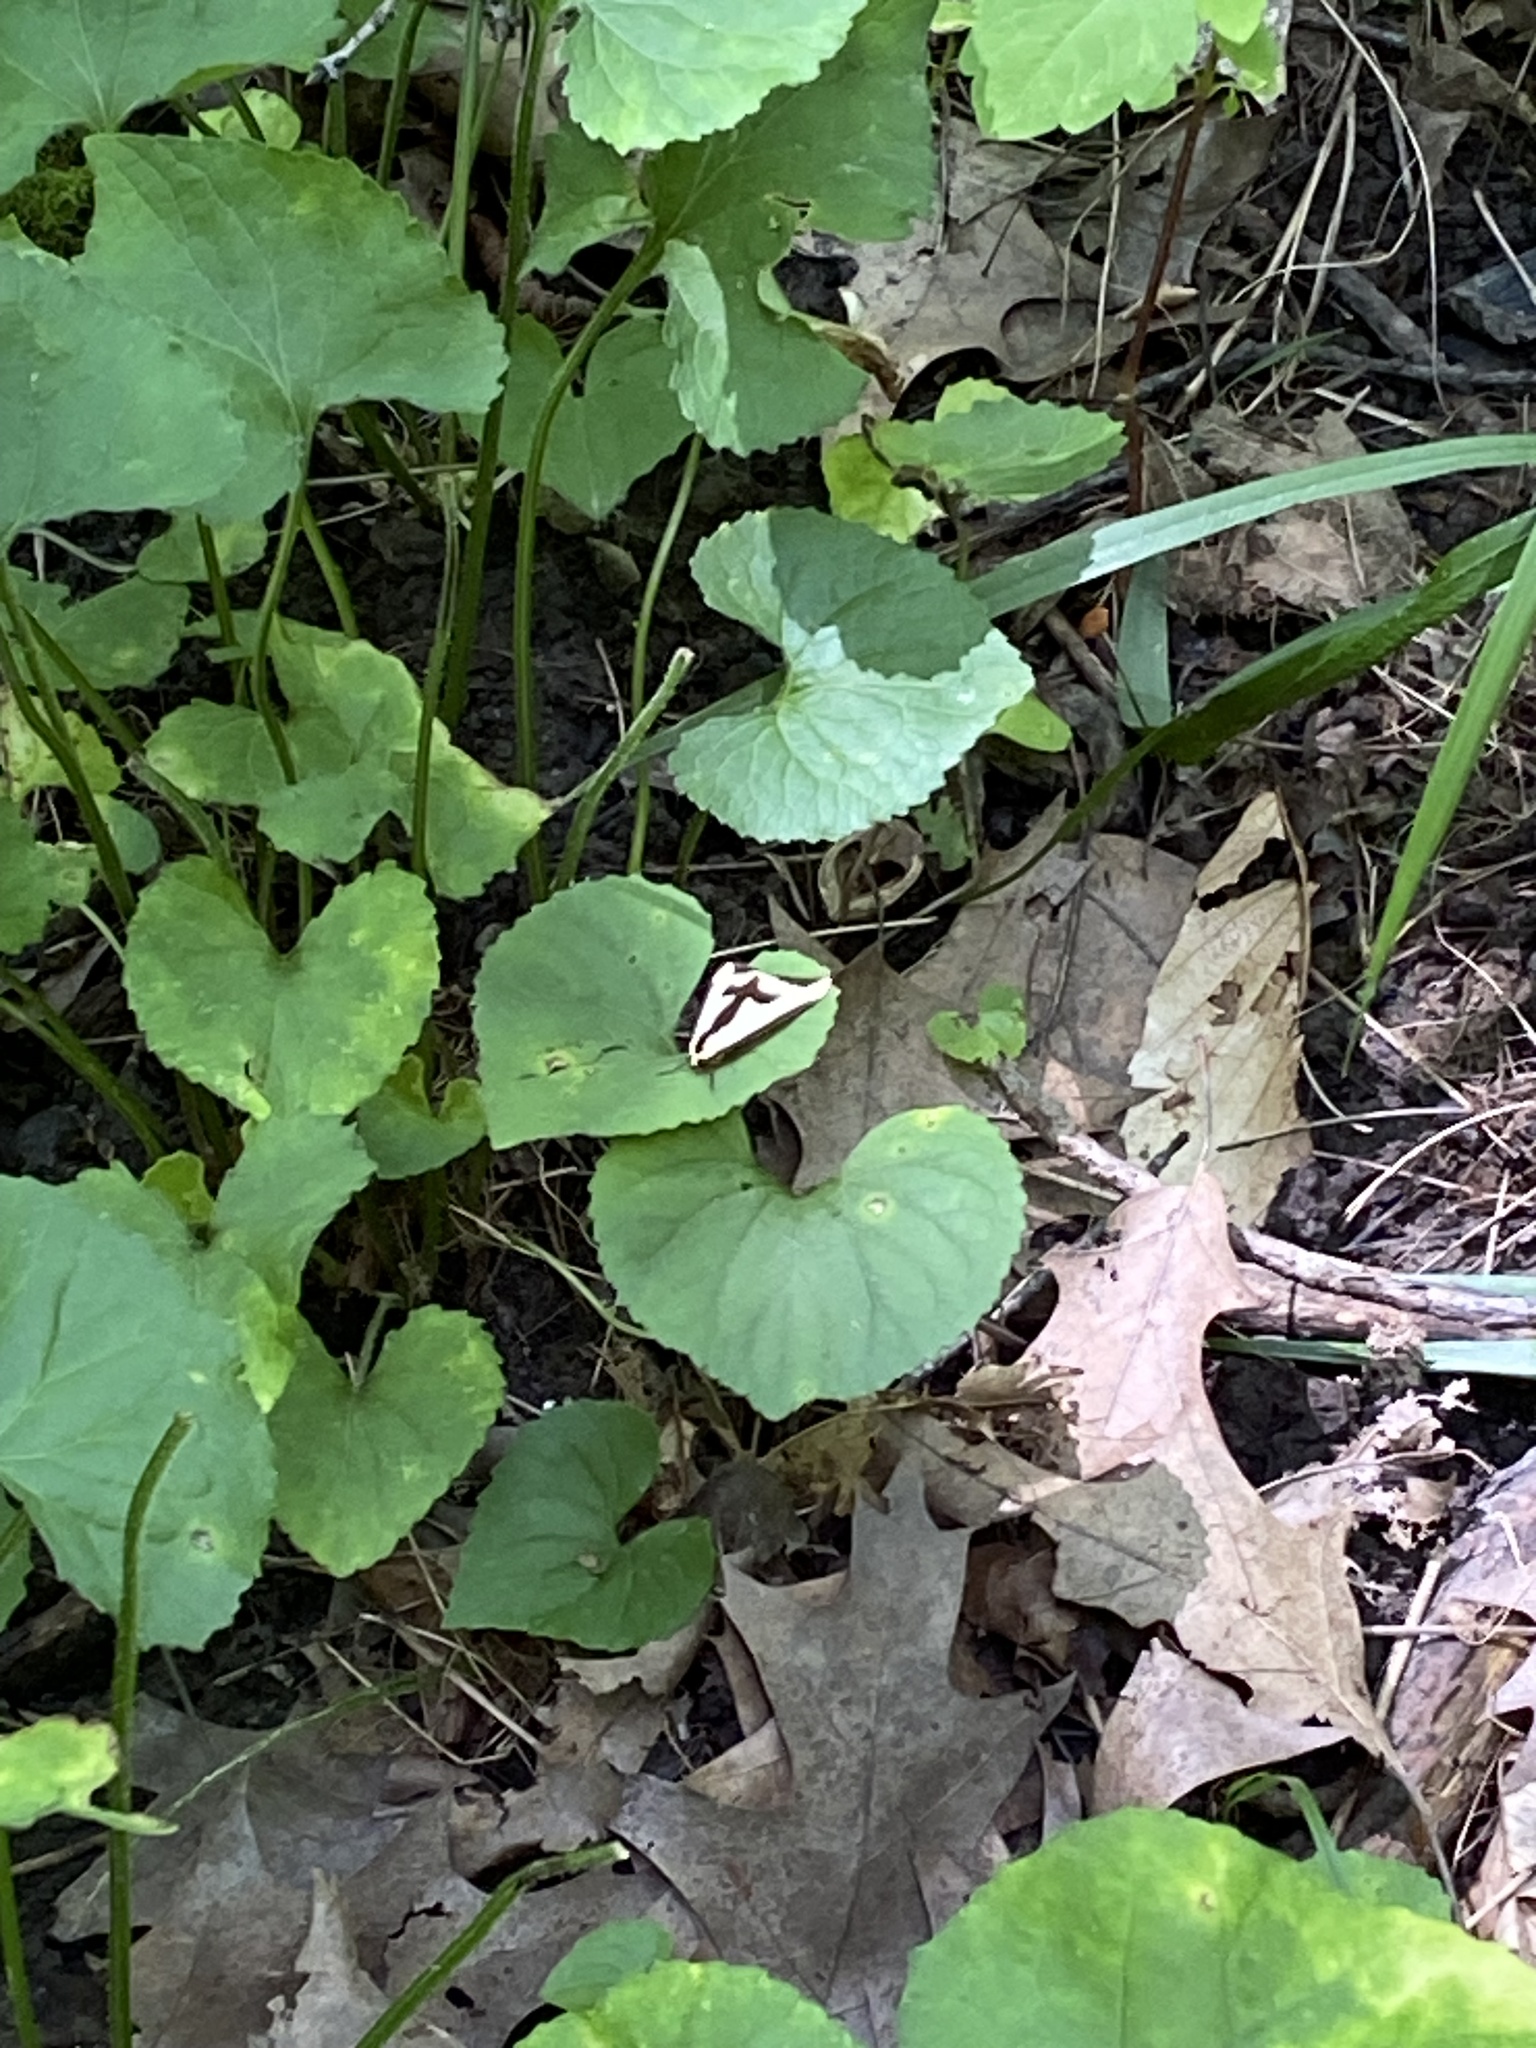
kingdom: Animalia
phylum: Arthropoda
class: Insecta
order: Lepidoptera
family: Erebidae
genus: Haploa
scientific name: Haploa clymene
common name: Clymene moth
